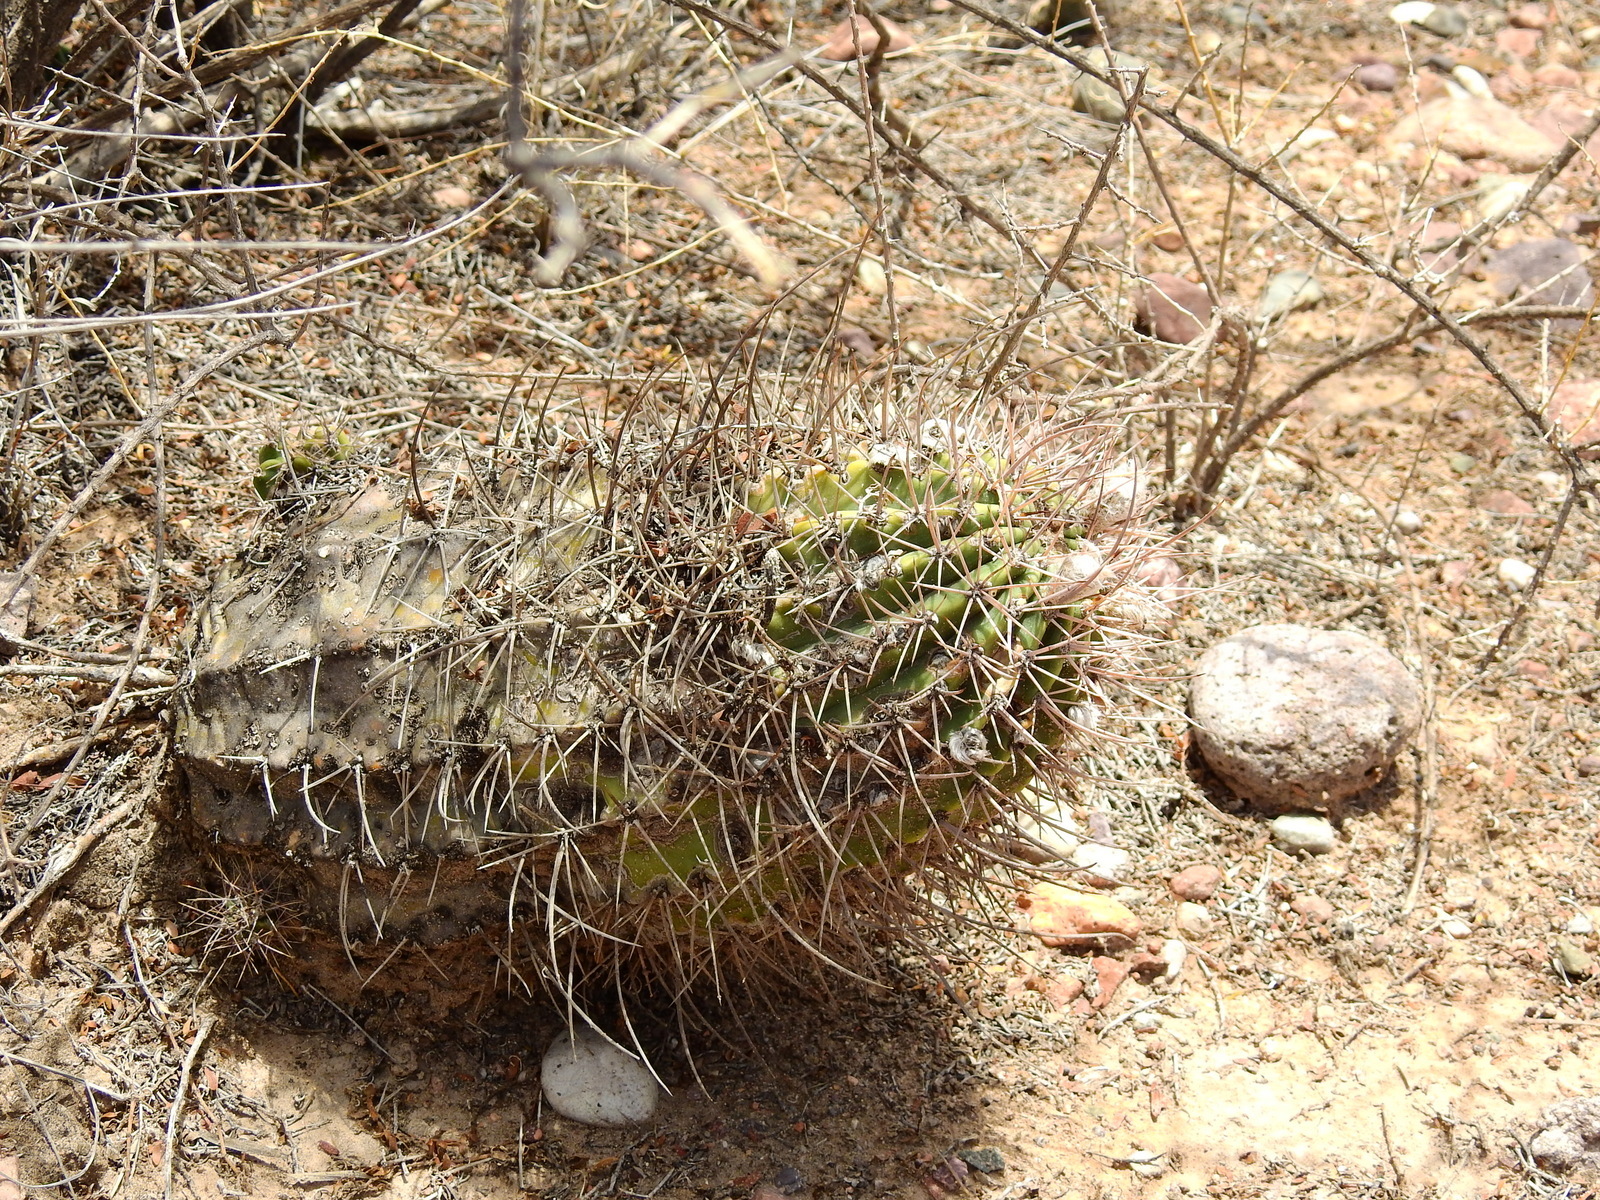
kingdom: Plantae
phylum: Tracheophyta
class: Magnoliopsida
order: Caryophyllales
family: Cactaceae
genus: Acanthocalycium
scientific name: Acanthocalycium leucanthum
